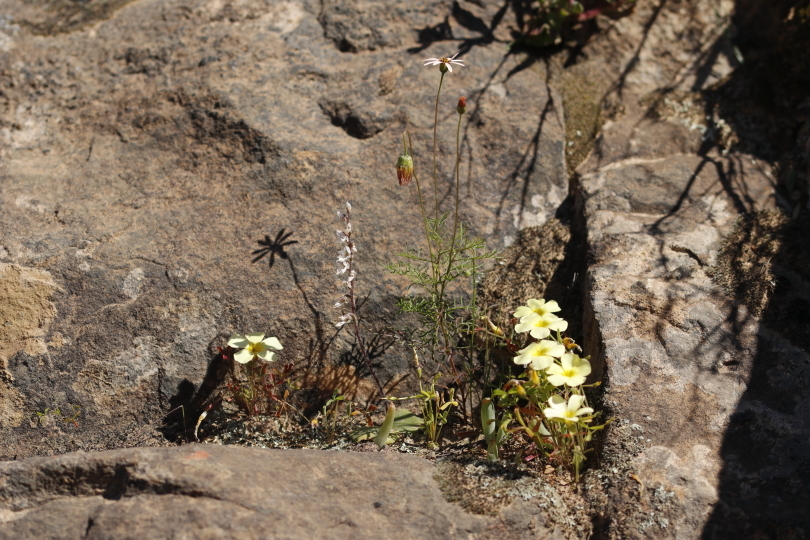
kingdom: Plantae
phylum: Tracheophyta
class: Liliopsida
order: Asparagales
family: Orchidaceae
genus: Holothrix
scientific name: Holothrix aspera
